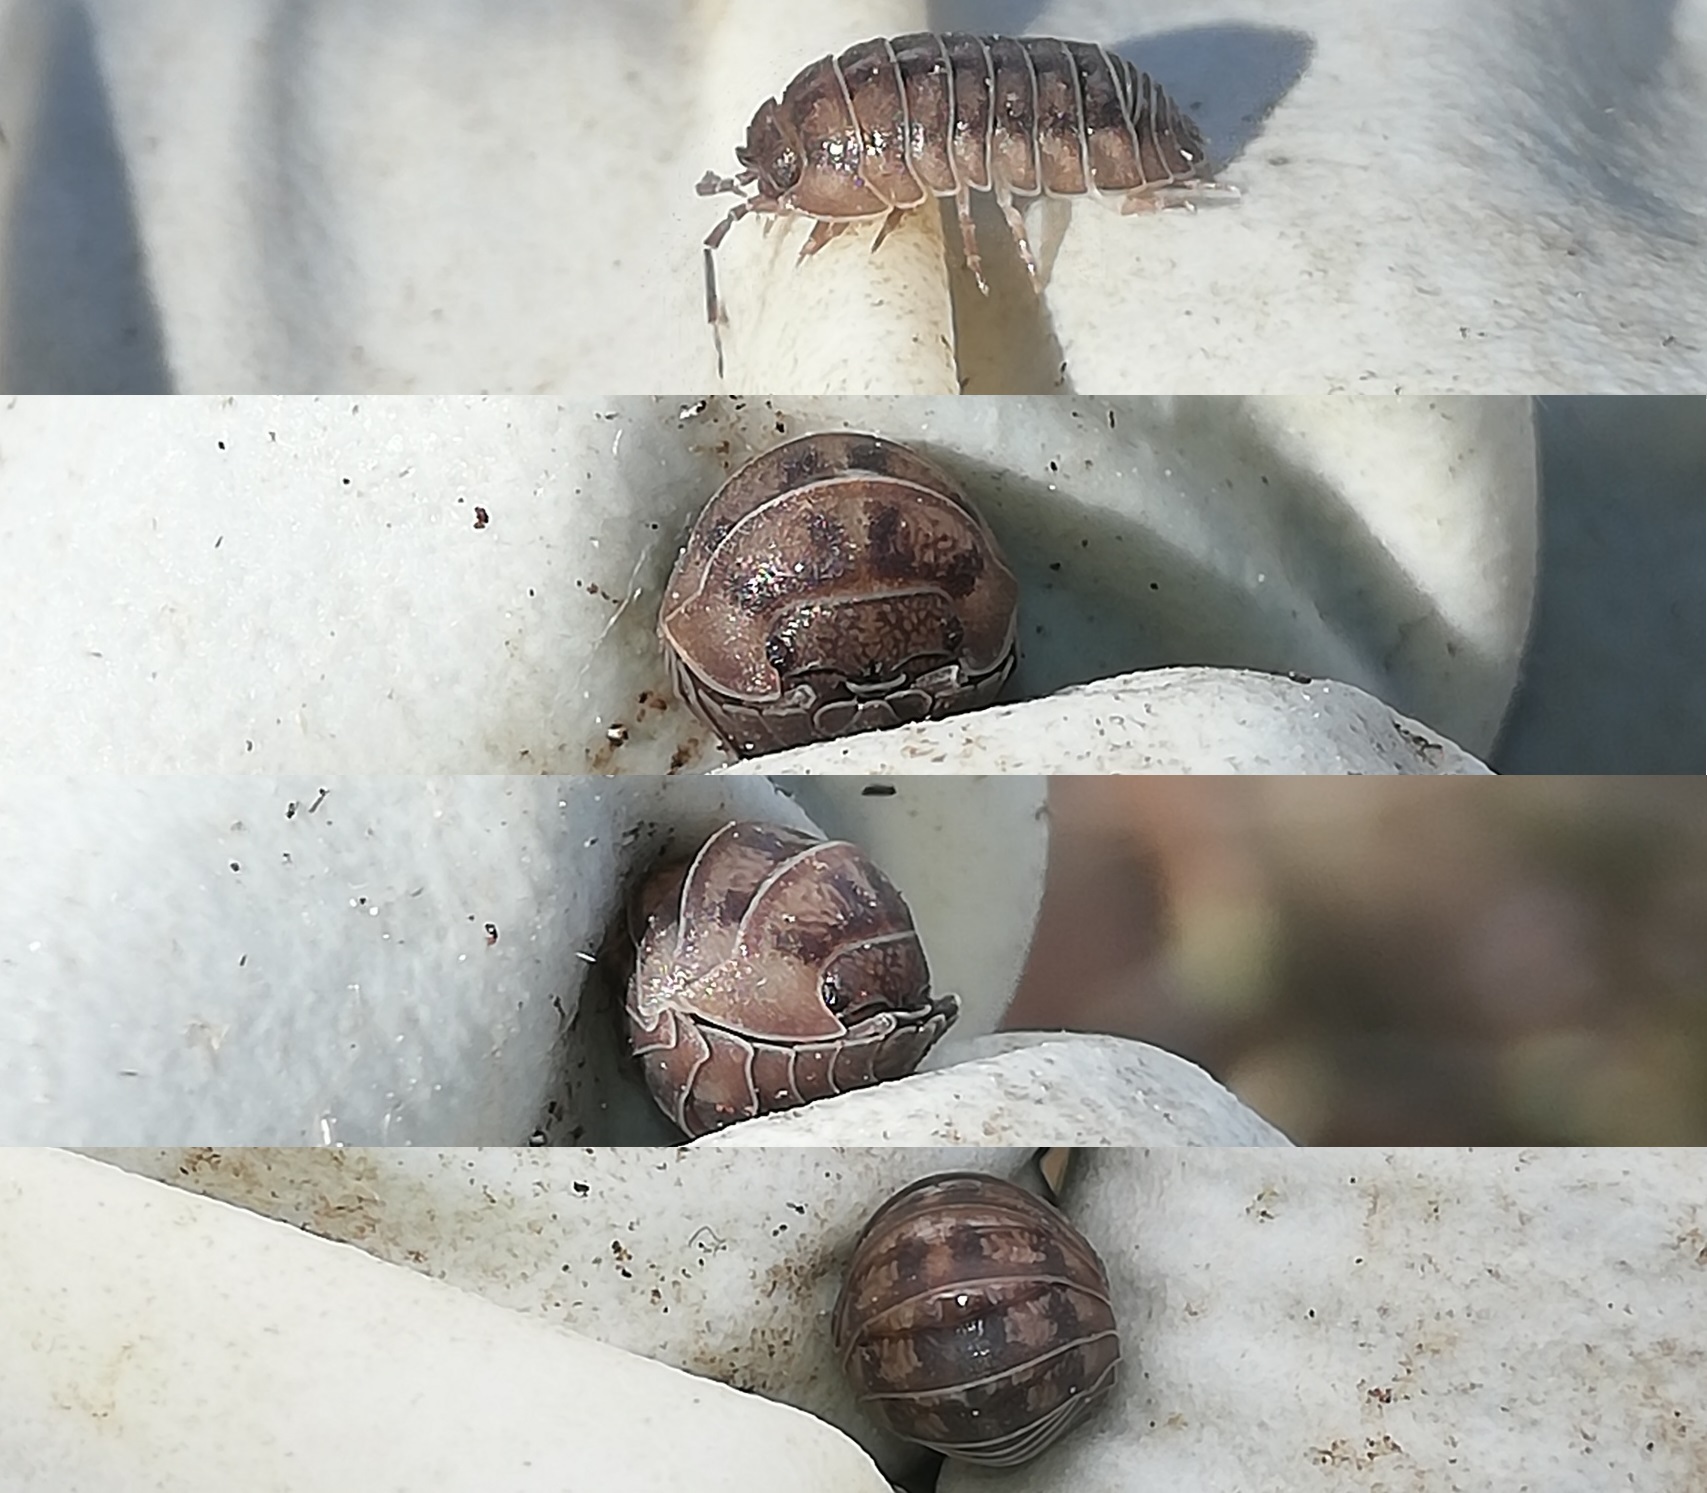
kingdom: Animalia
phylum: Arthropoda
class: Malacostraca
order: Isopoda
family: Armadillidiidae
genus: Armadillidium
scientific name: Armadillidium nasatum
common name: Isopod
